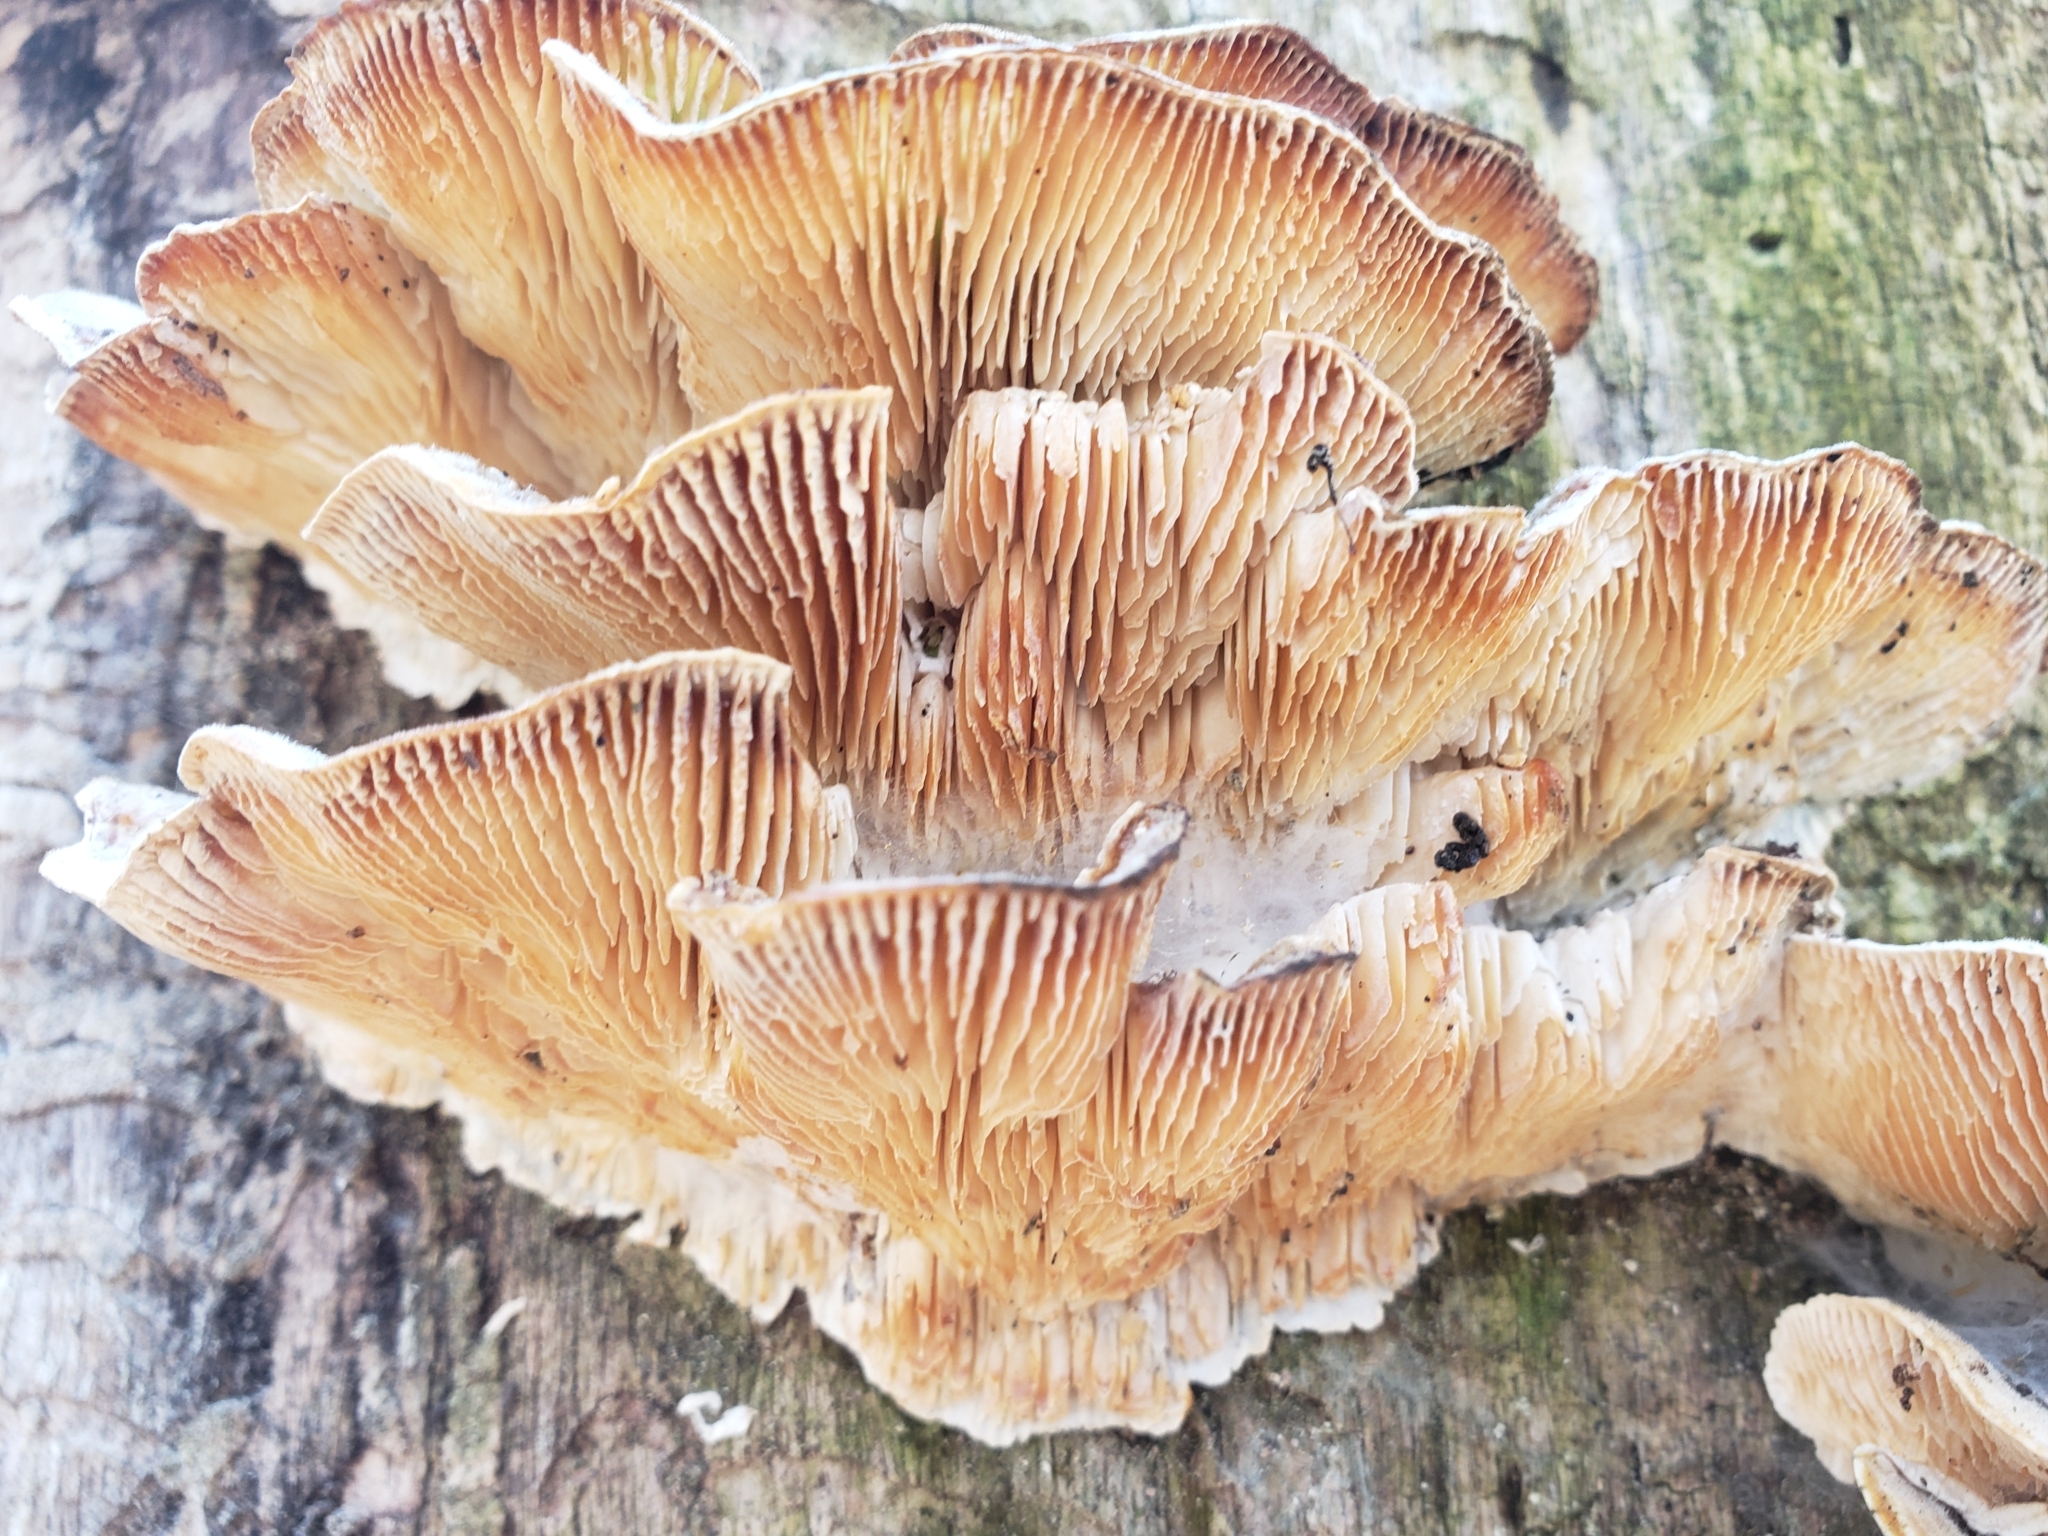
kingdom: Fungi
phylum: Basidiomycota
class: Agaricomycetes
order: Polyporales
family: Polyporaceae
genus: Lenzites
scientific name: Lenzites betulinus
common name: Birch mazegill
